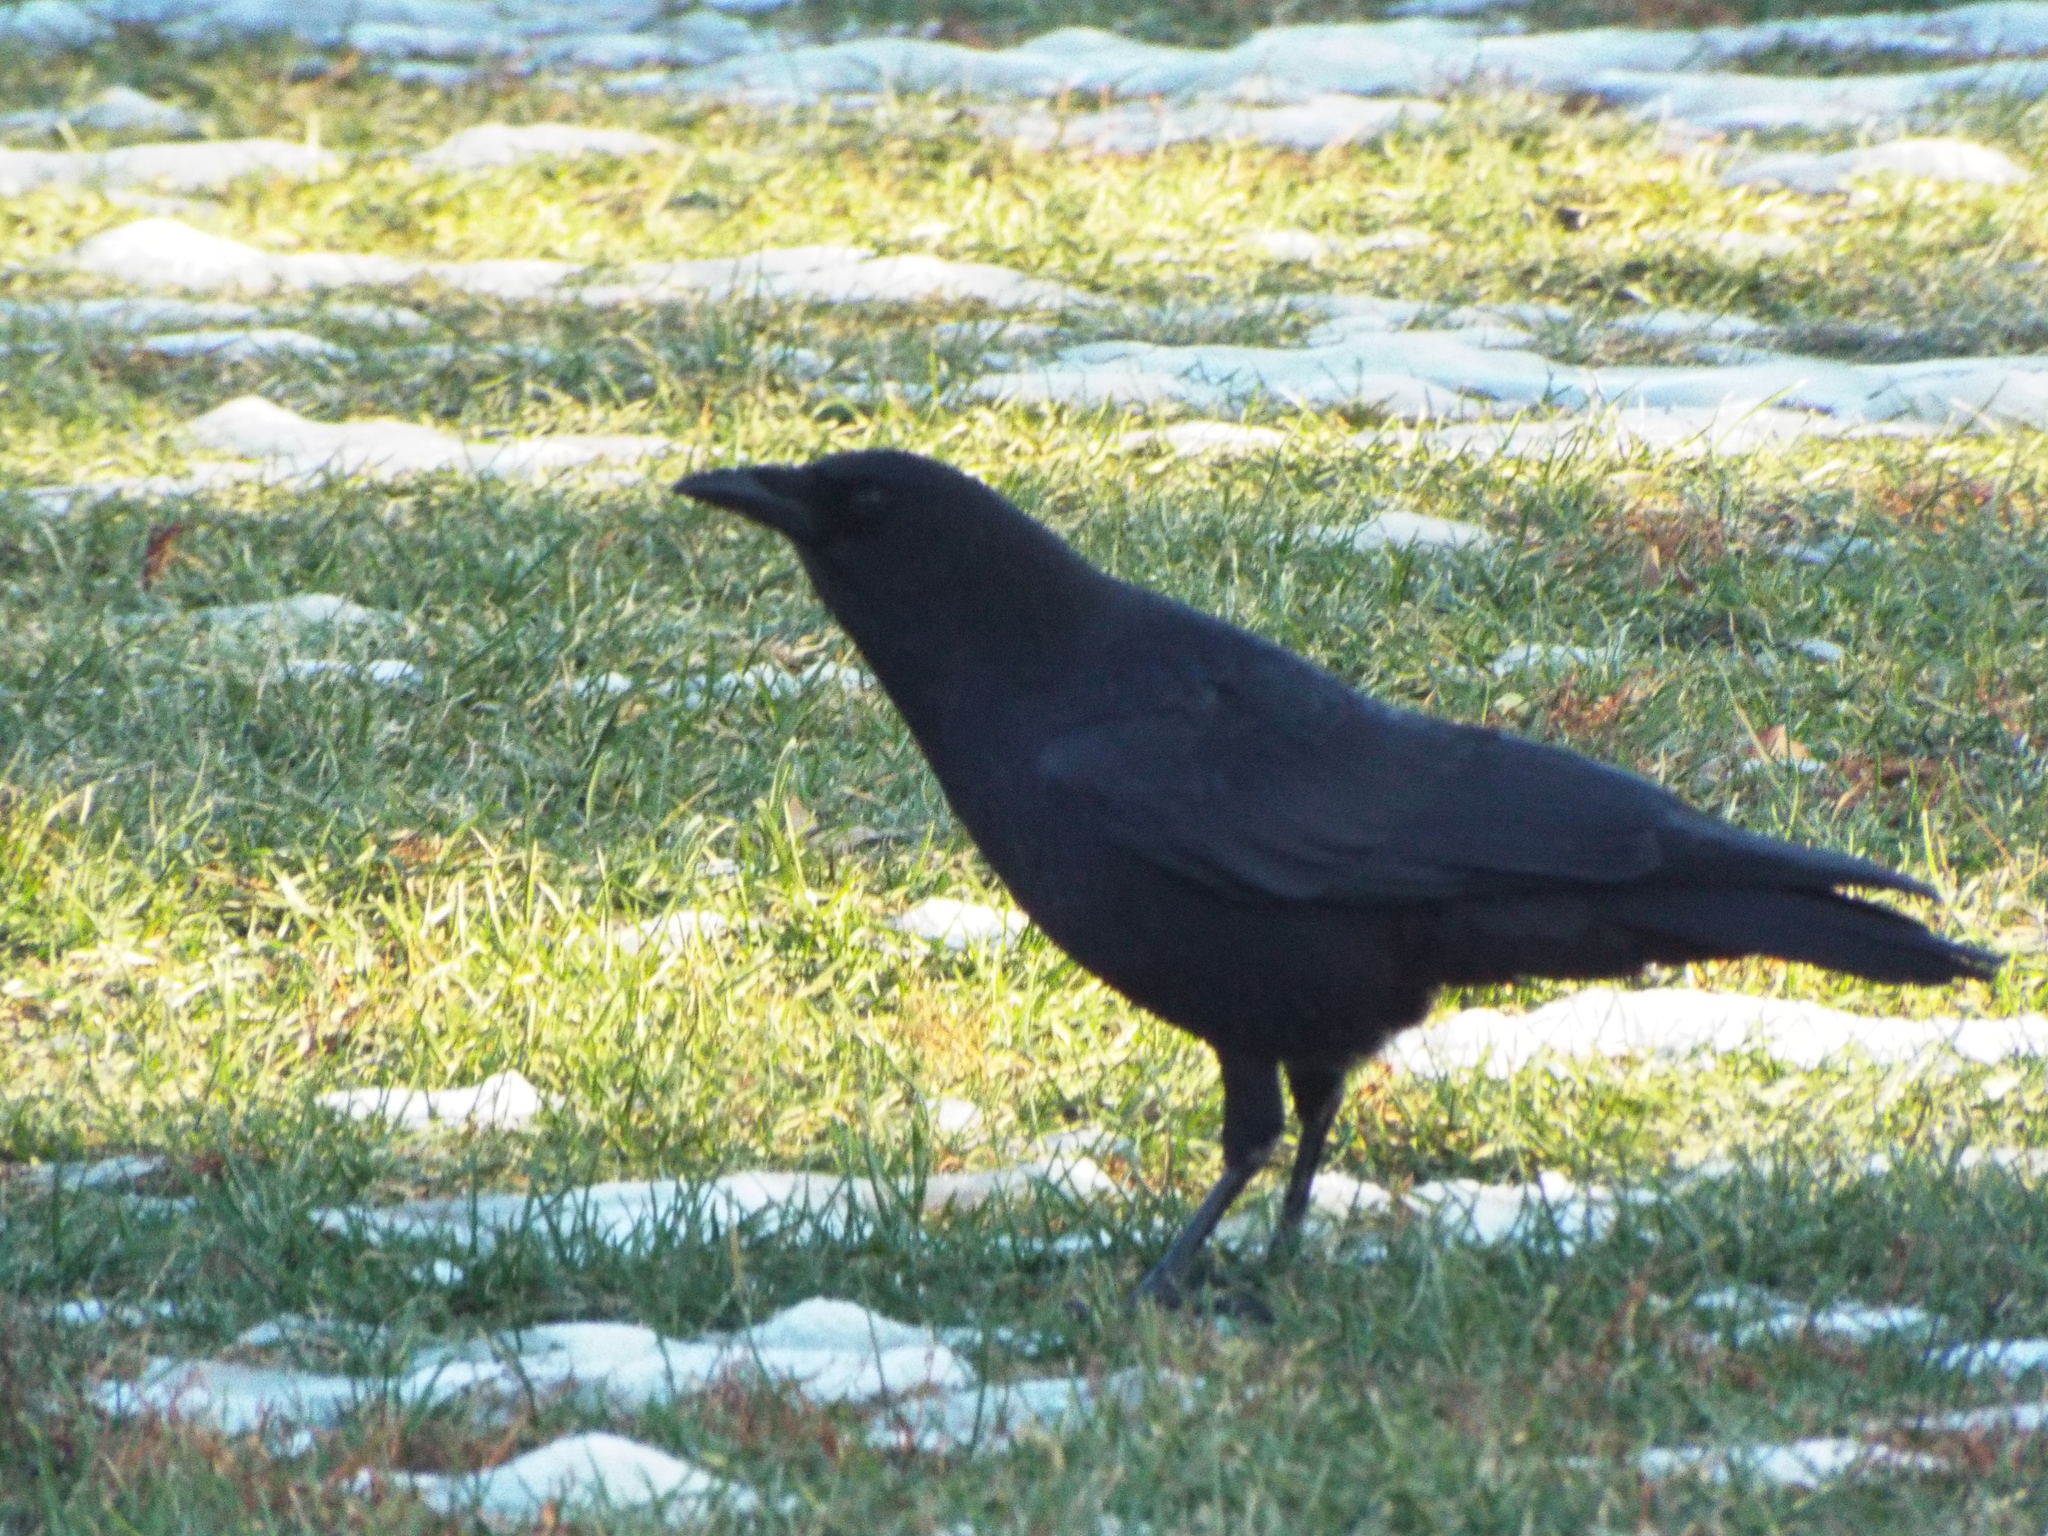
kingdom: Animalia
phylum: Chordata
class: Aves
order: Passeriformes
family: Corvidae
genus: Corvus
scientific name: Corvus brachyrhynchos
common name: American crow
